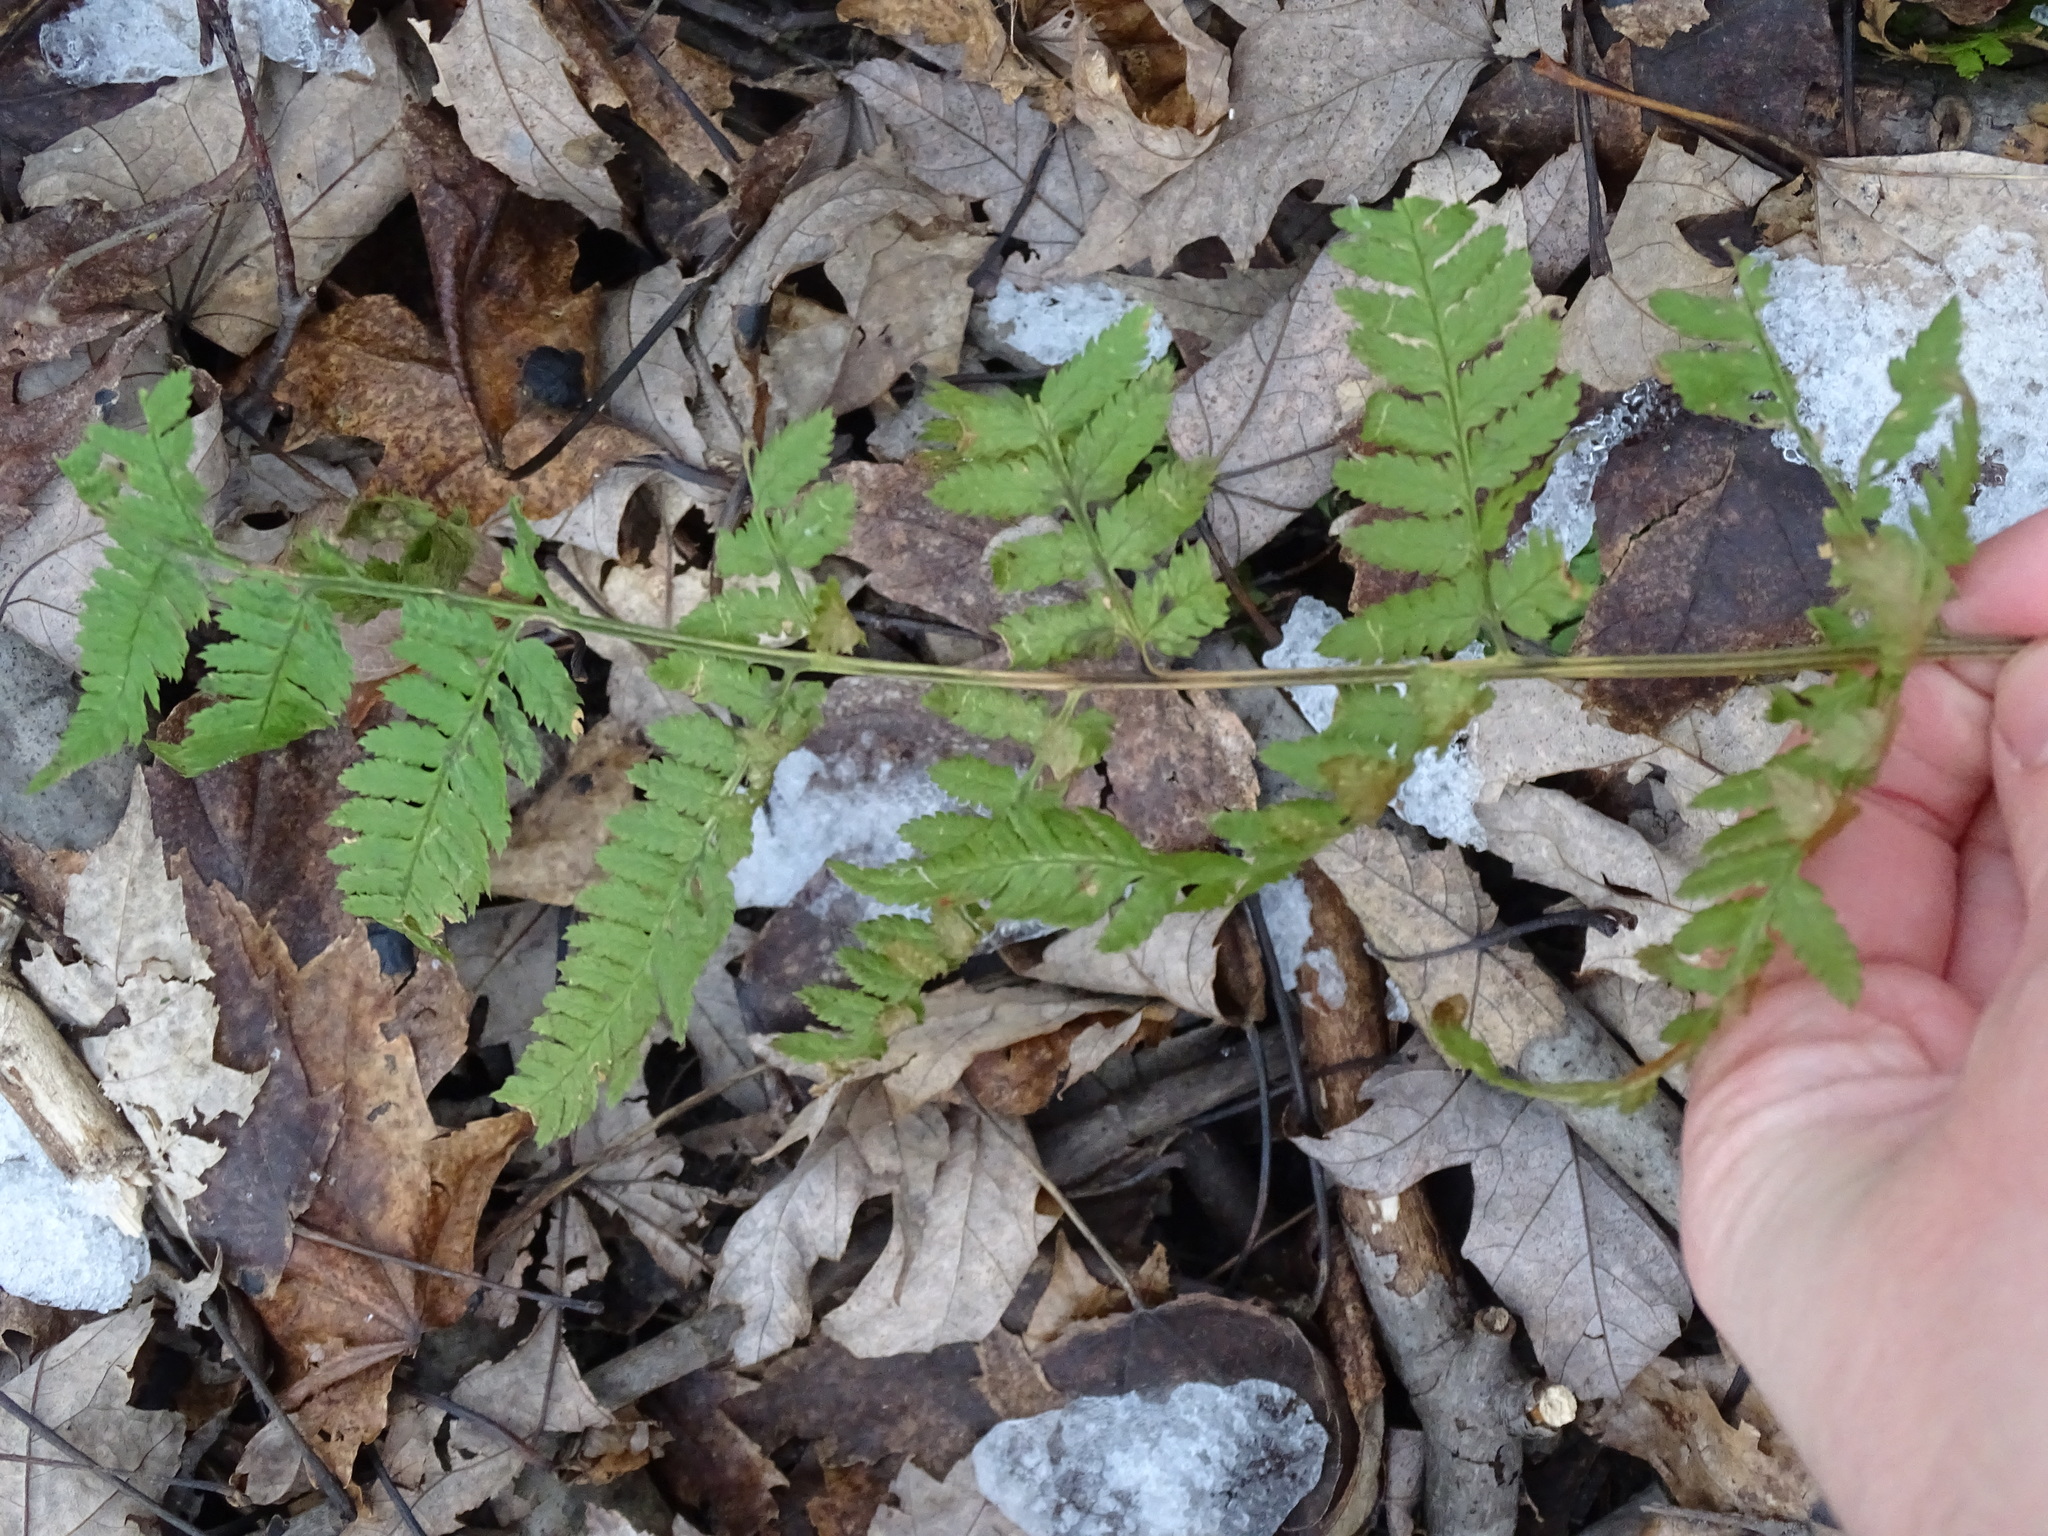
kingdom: Plantae
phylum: Tracheophyta
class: Polypodiopsida
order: Polypodiales
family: Dryopteridaceae
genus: Dryopteris
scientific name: Dryopteris intermedia
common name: Evergreen wood fern
